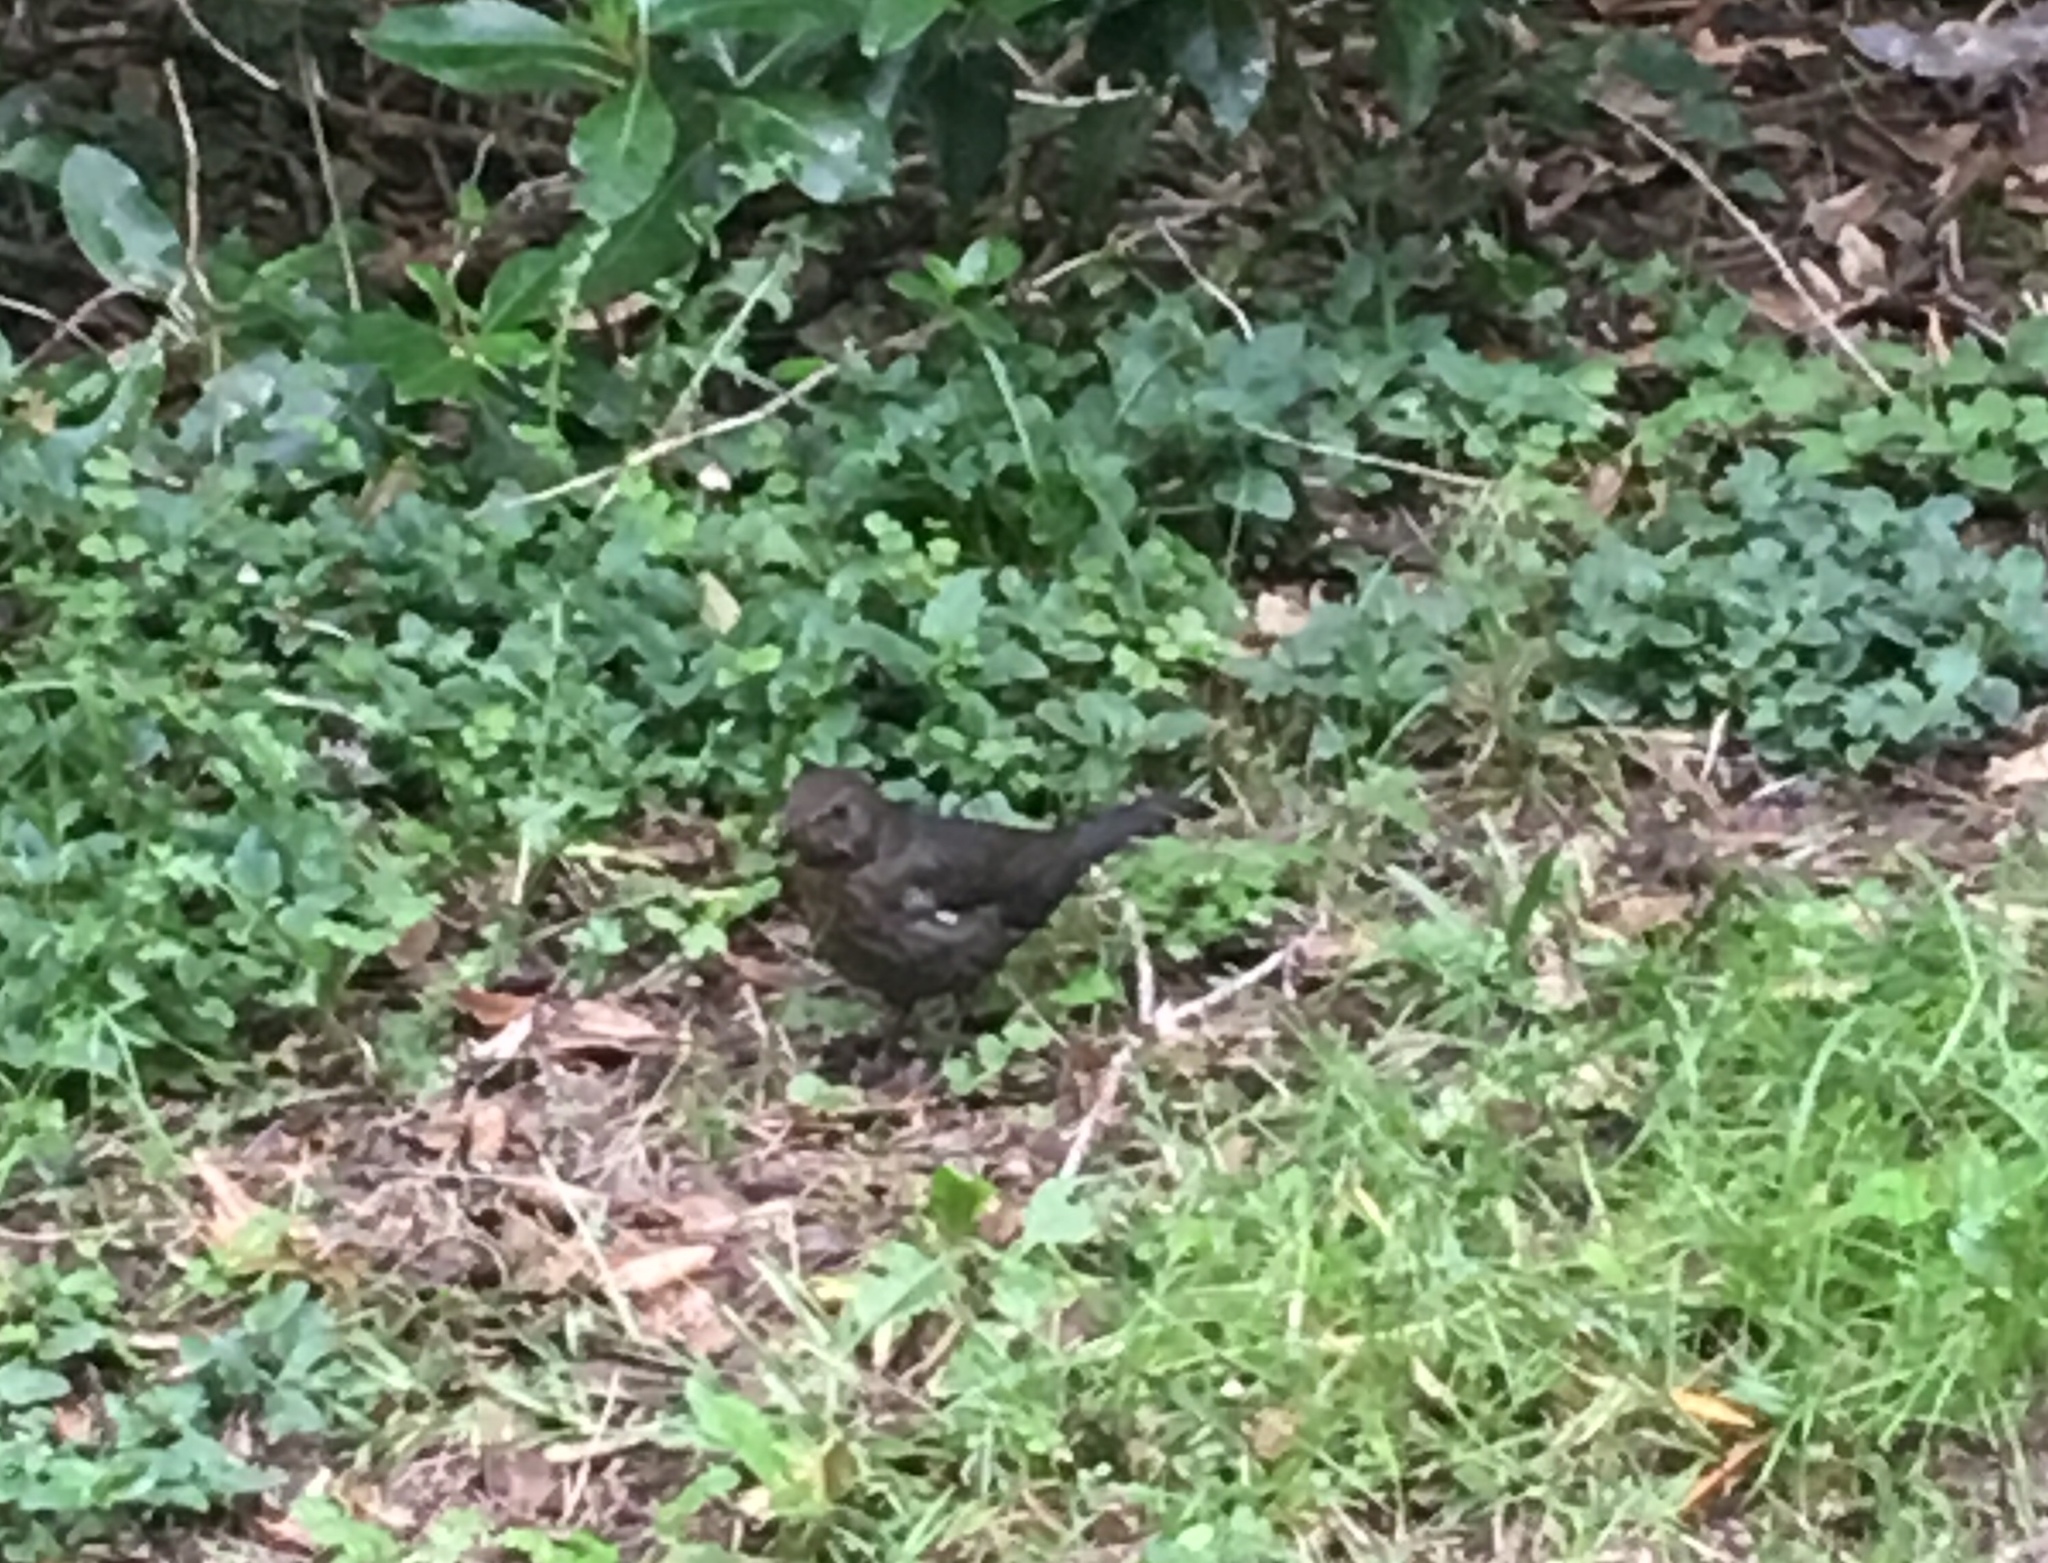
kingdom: Animalia
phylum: Chordata
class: Aves
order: Passeriformes
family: Turdidae
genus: Turdus
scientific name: Turdus merula
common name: Common blackbird
